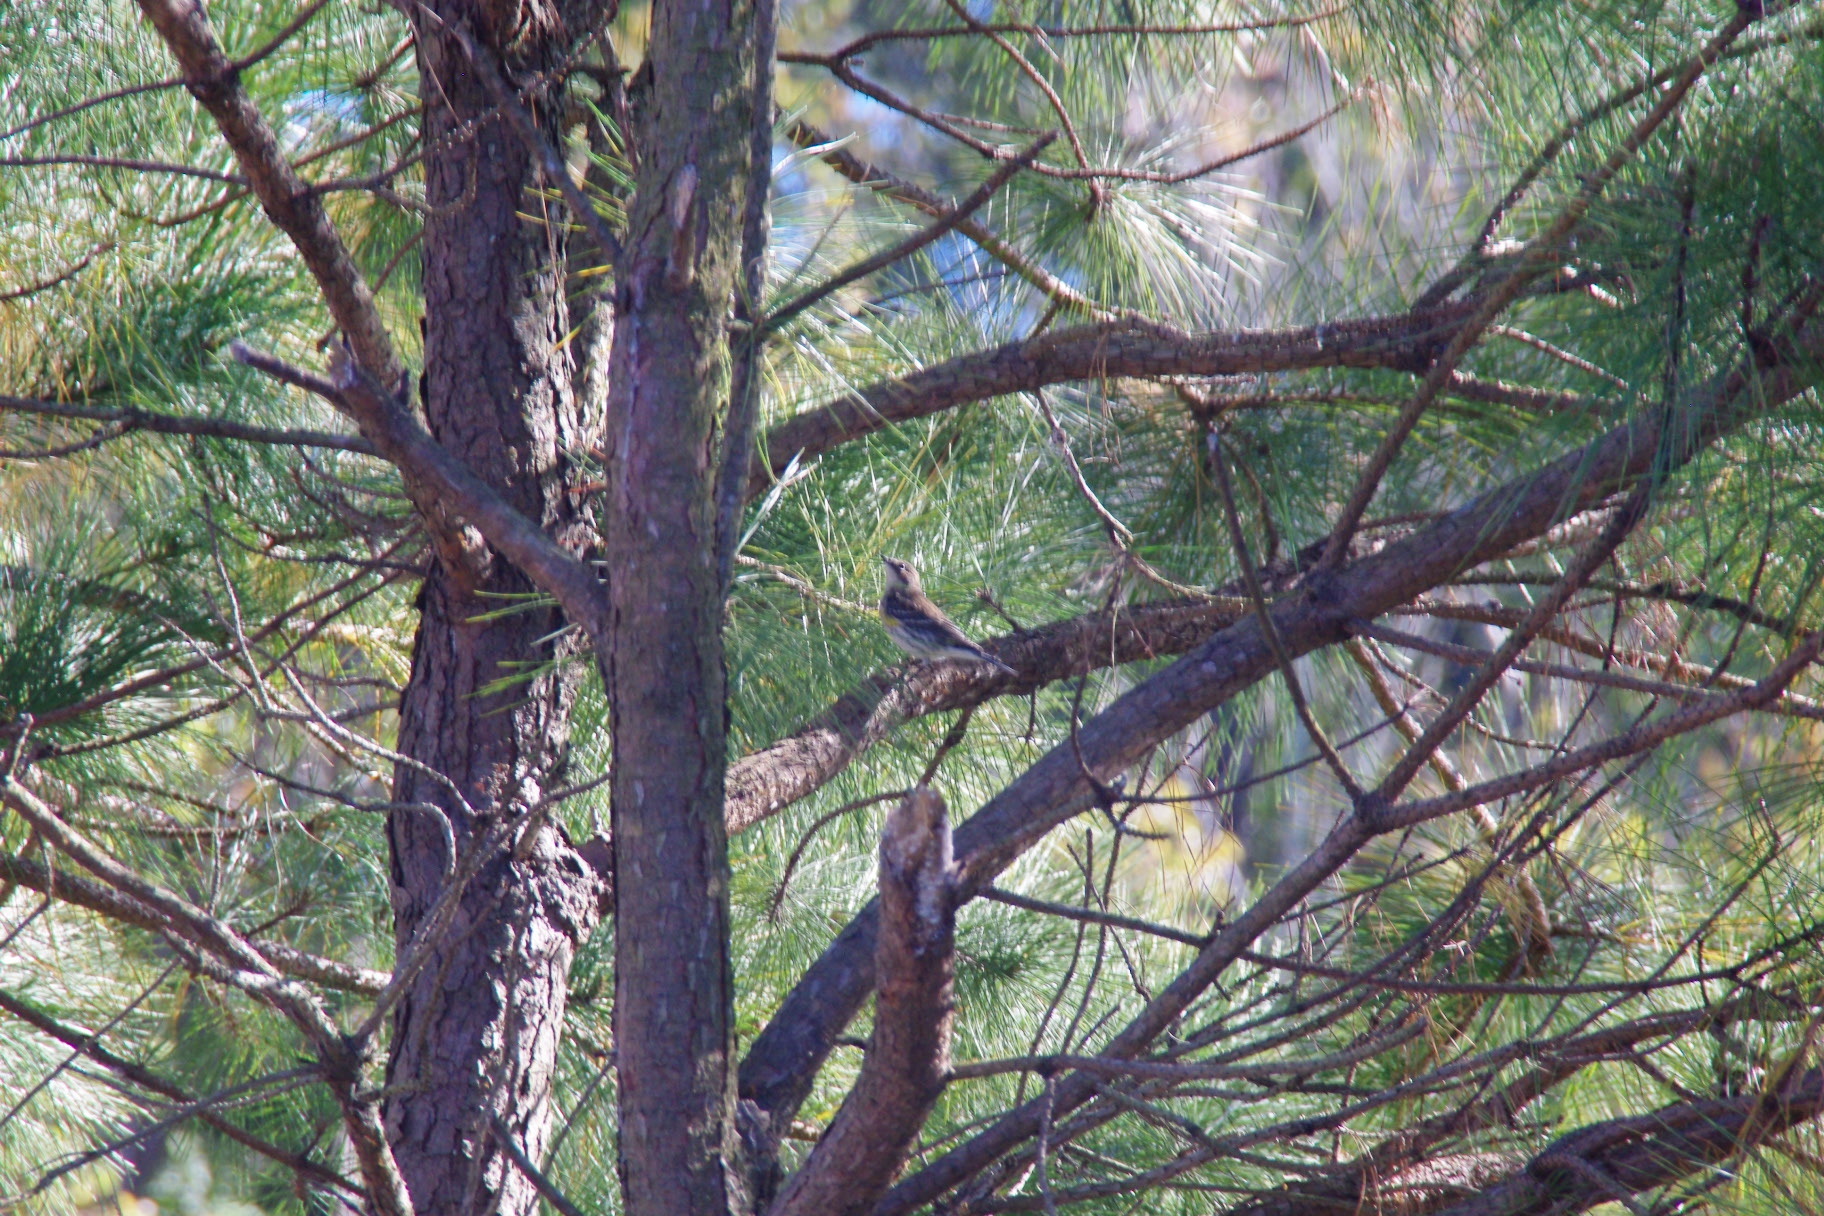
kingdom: Animalia
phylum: Chordata
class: Aves
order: Passeriformes
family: Parulidae
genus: Setophaga
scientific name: Setophaga coronata
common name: Myrtle warbler
